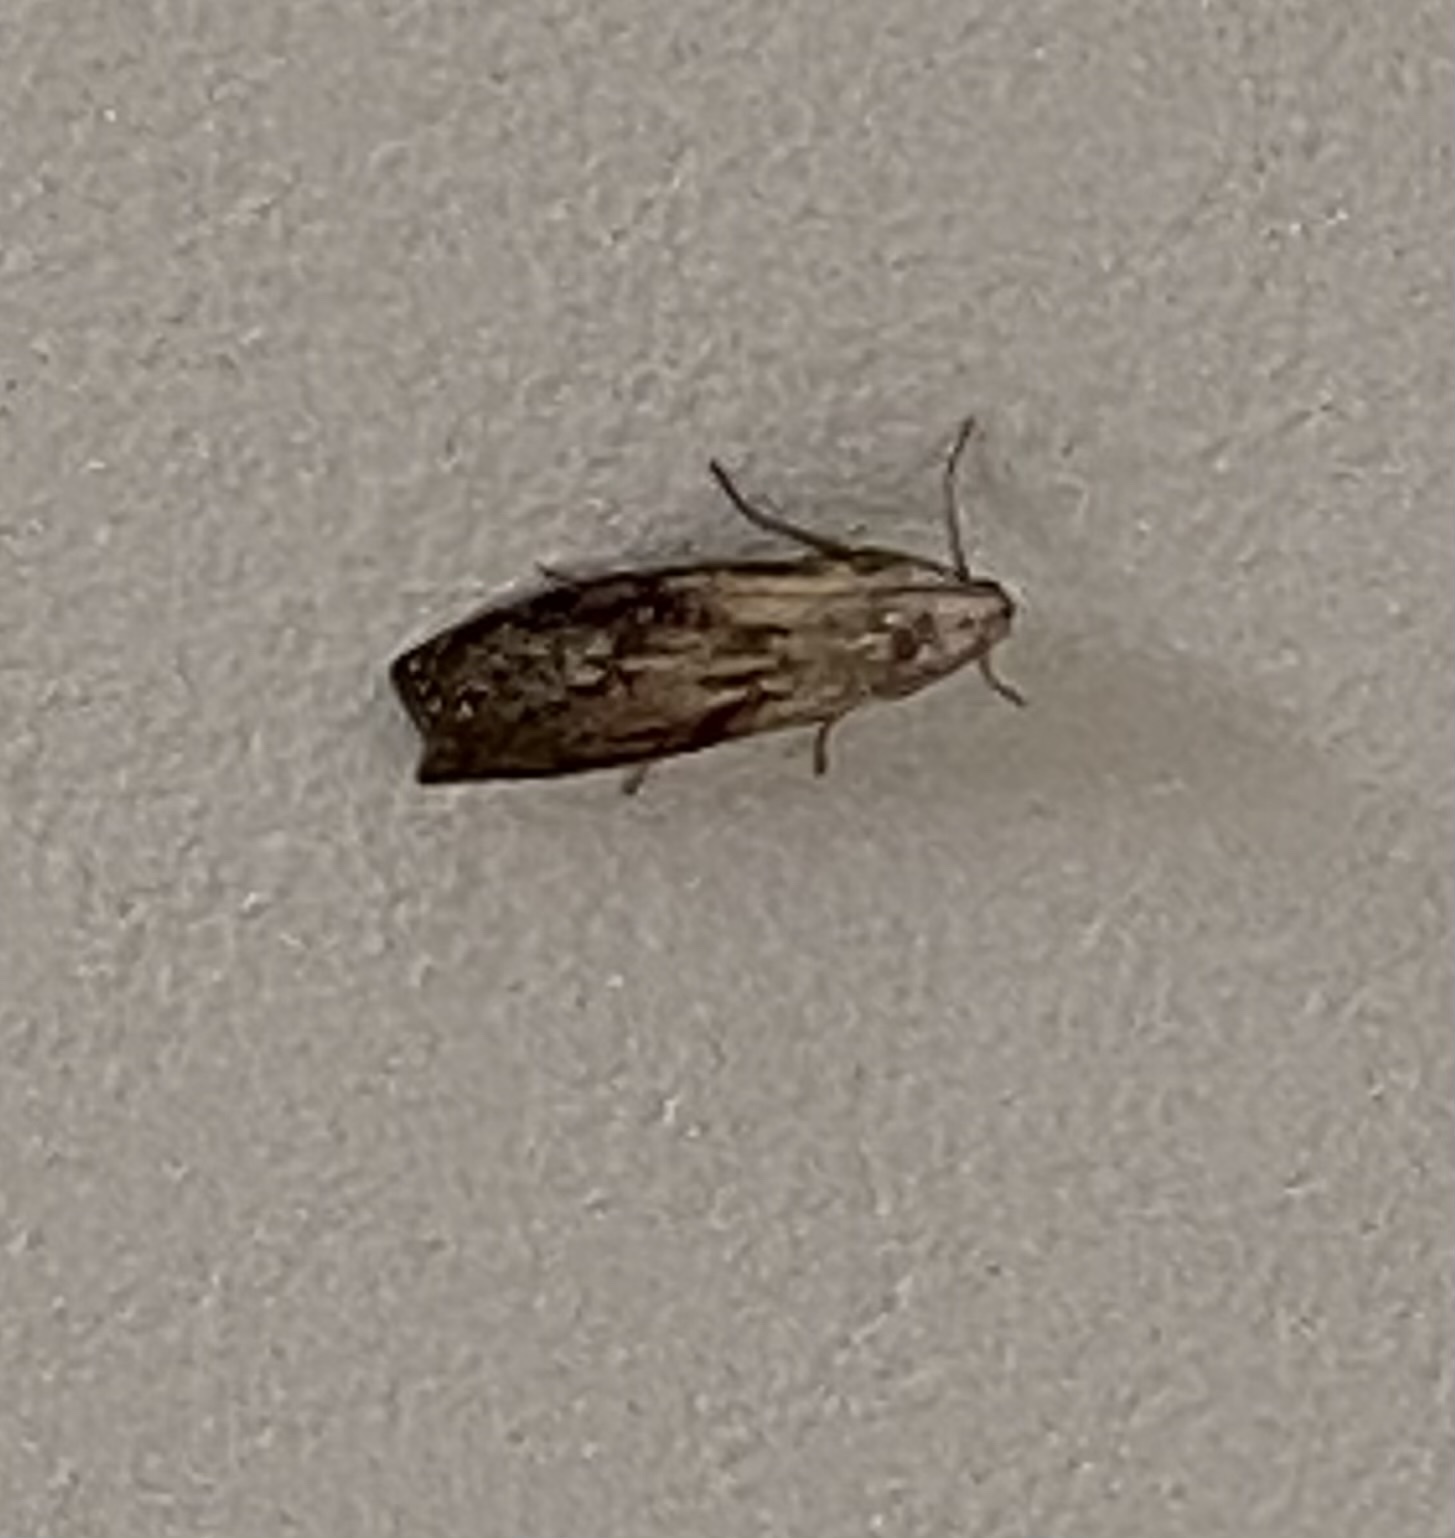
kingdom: Animalia
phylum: Arthropoda
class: Insecta
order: Lepidoptera
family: Pyralidae
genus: Aphomia
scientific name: Aphomia sociella
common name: Bee moth
